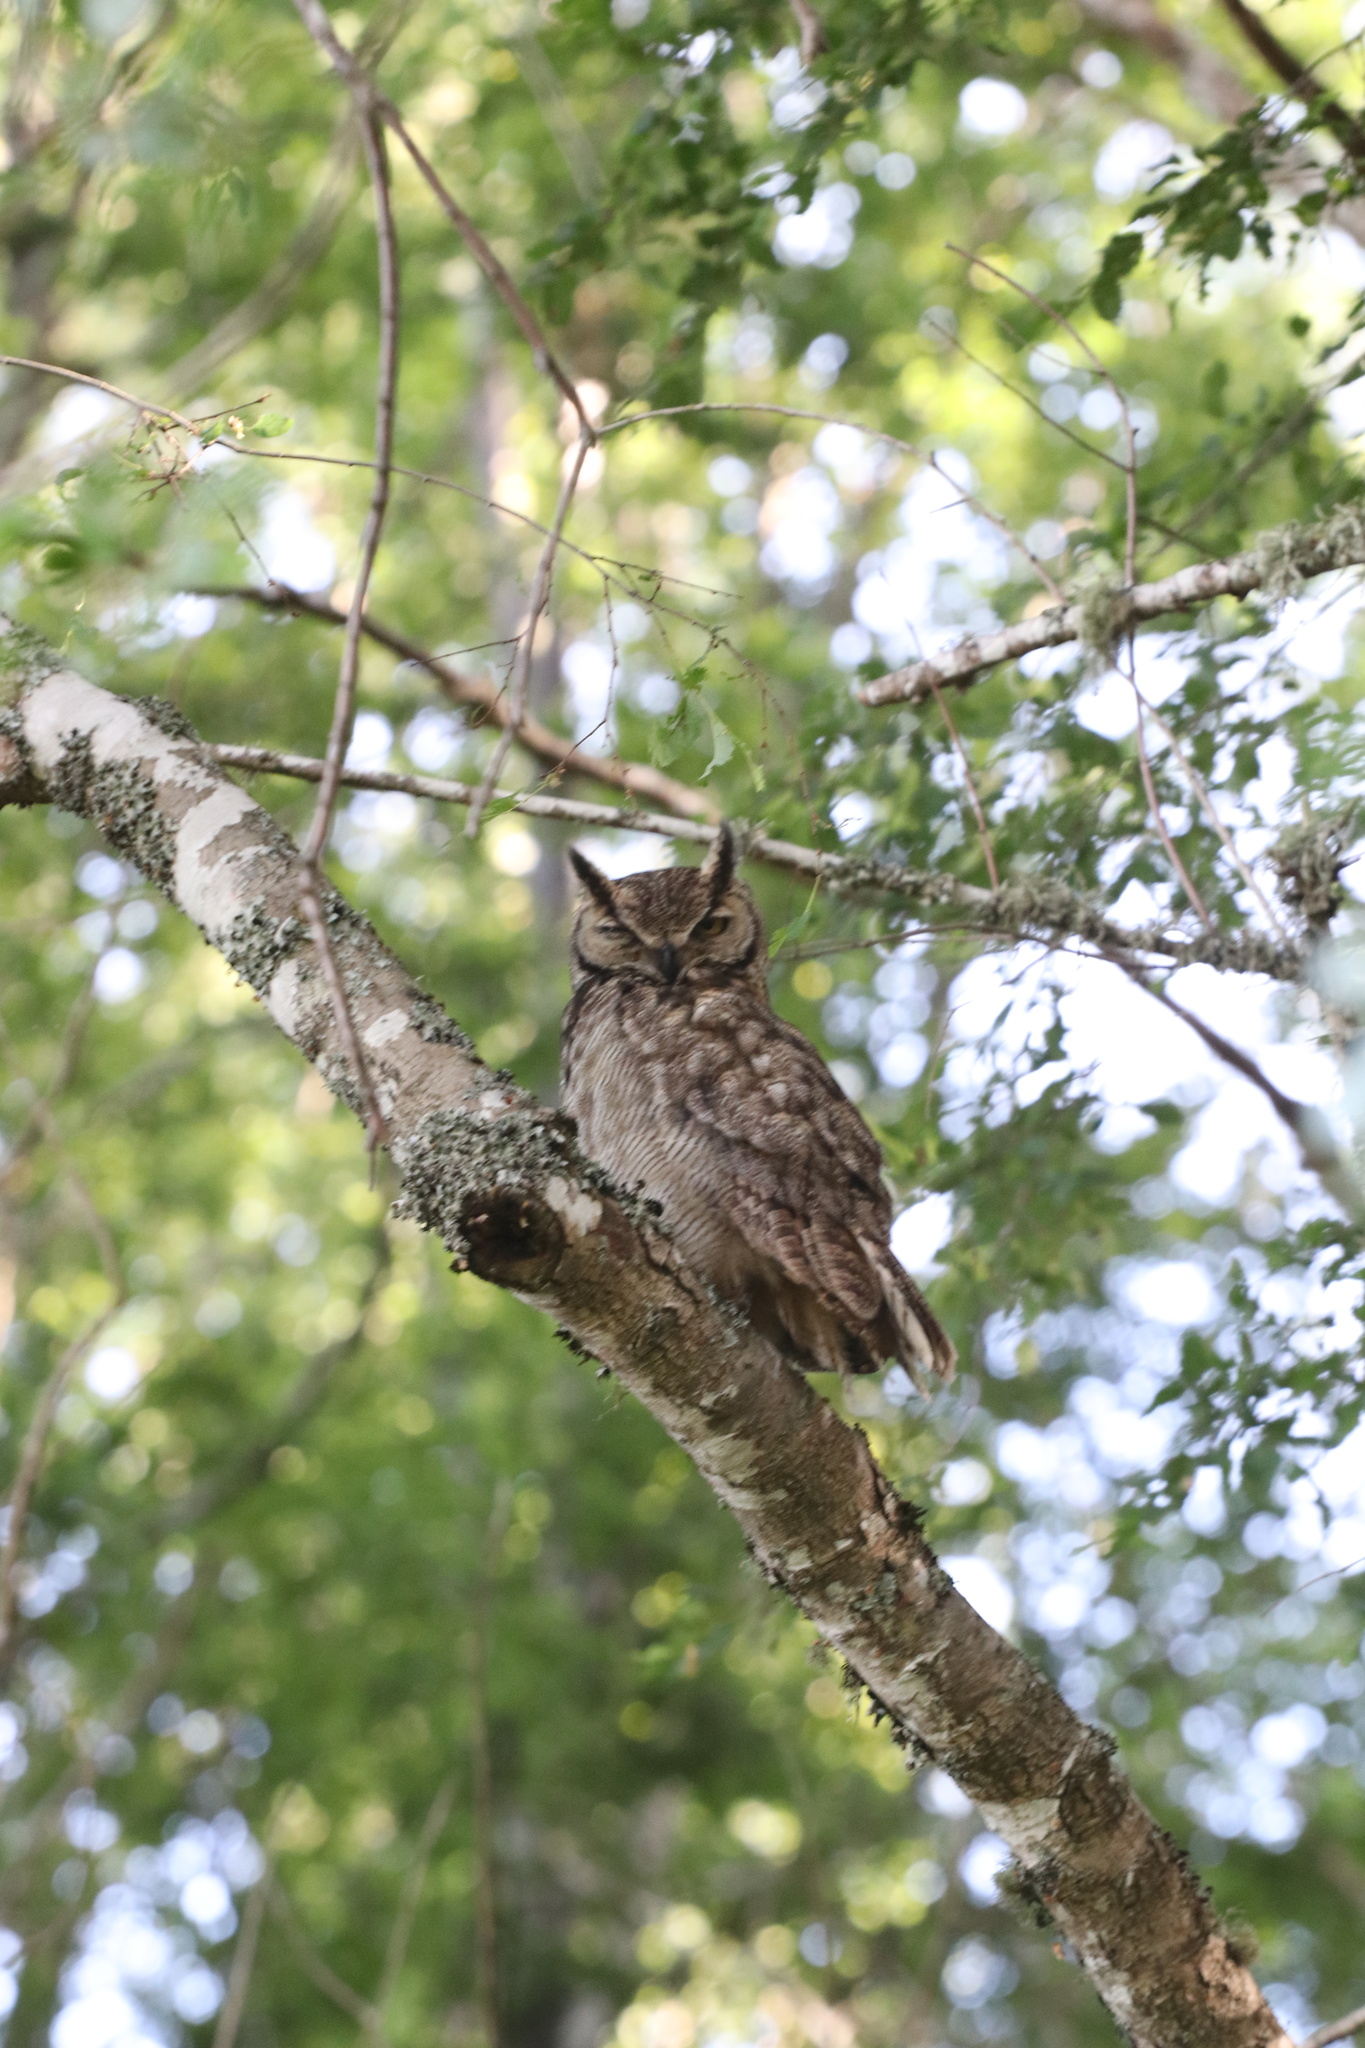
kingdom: Animalia
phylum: Chordata
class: Aves
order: Strigiformes
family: Strigidae
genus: Bubo
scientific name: Bubo magellanicus
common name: Lesser horned owl
